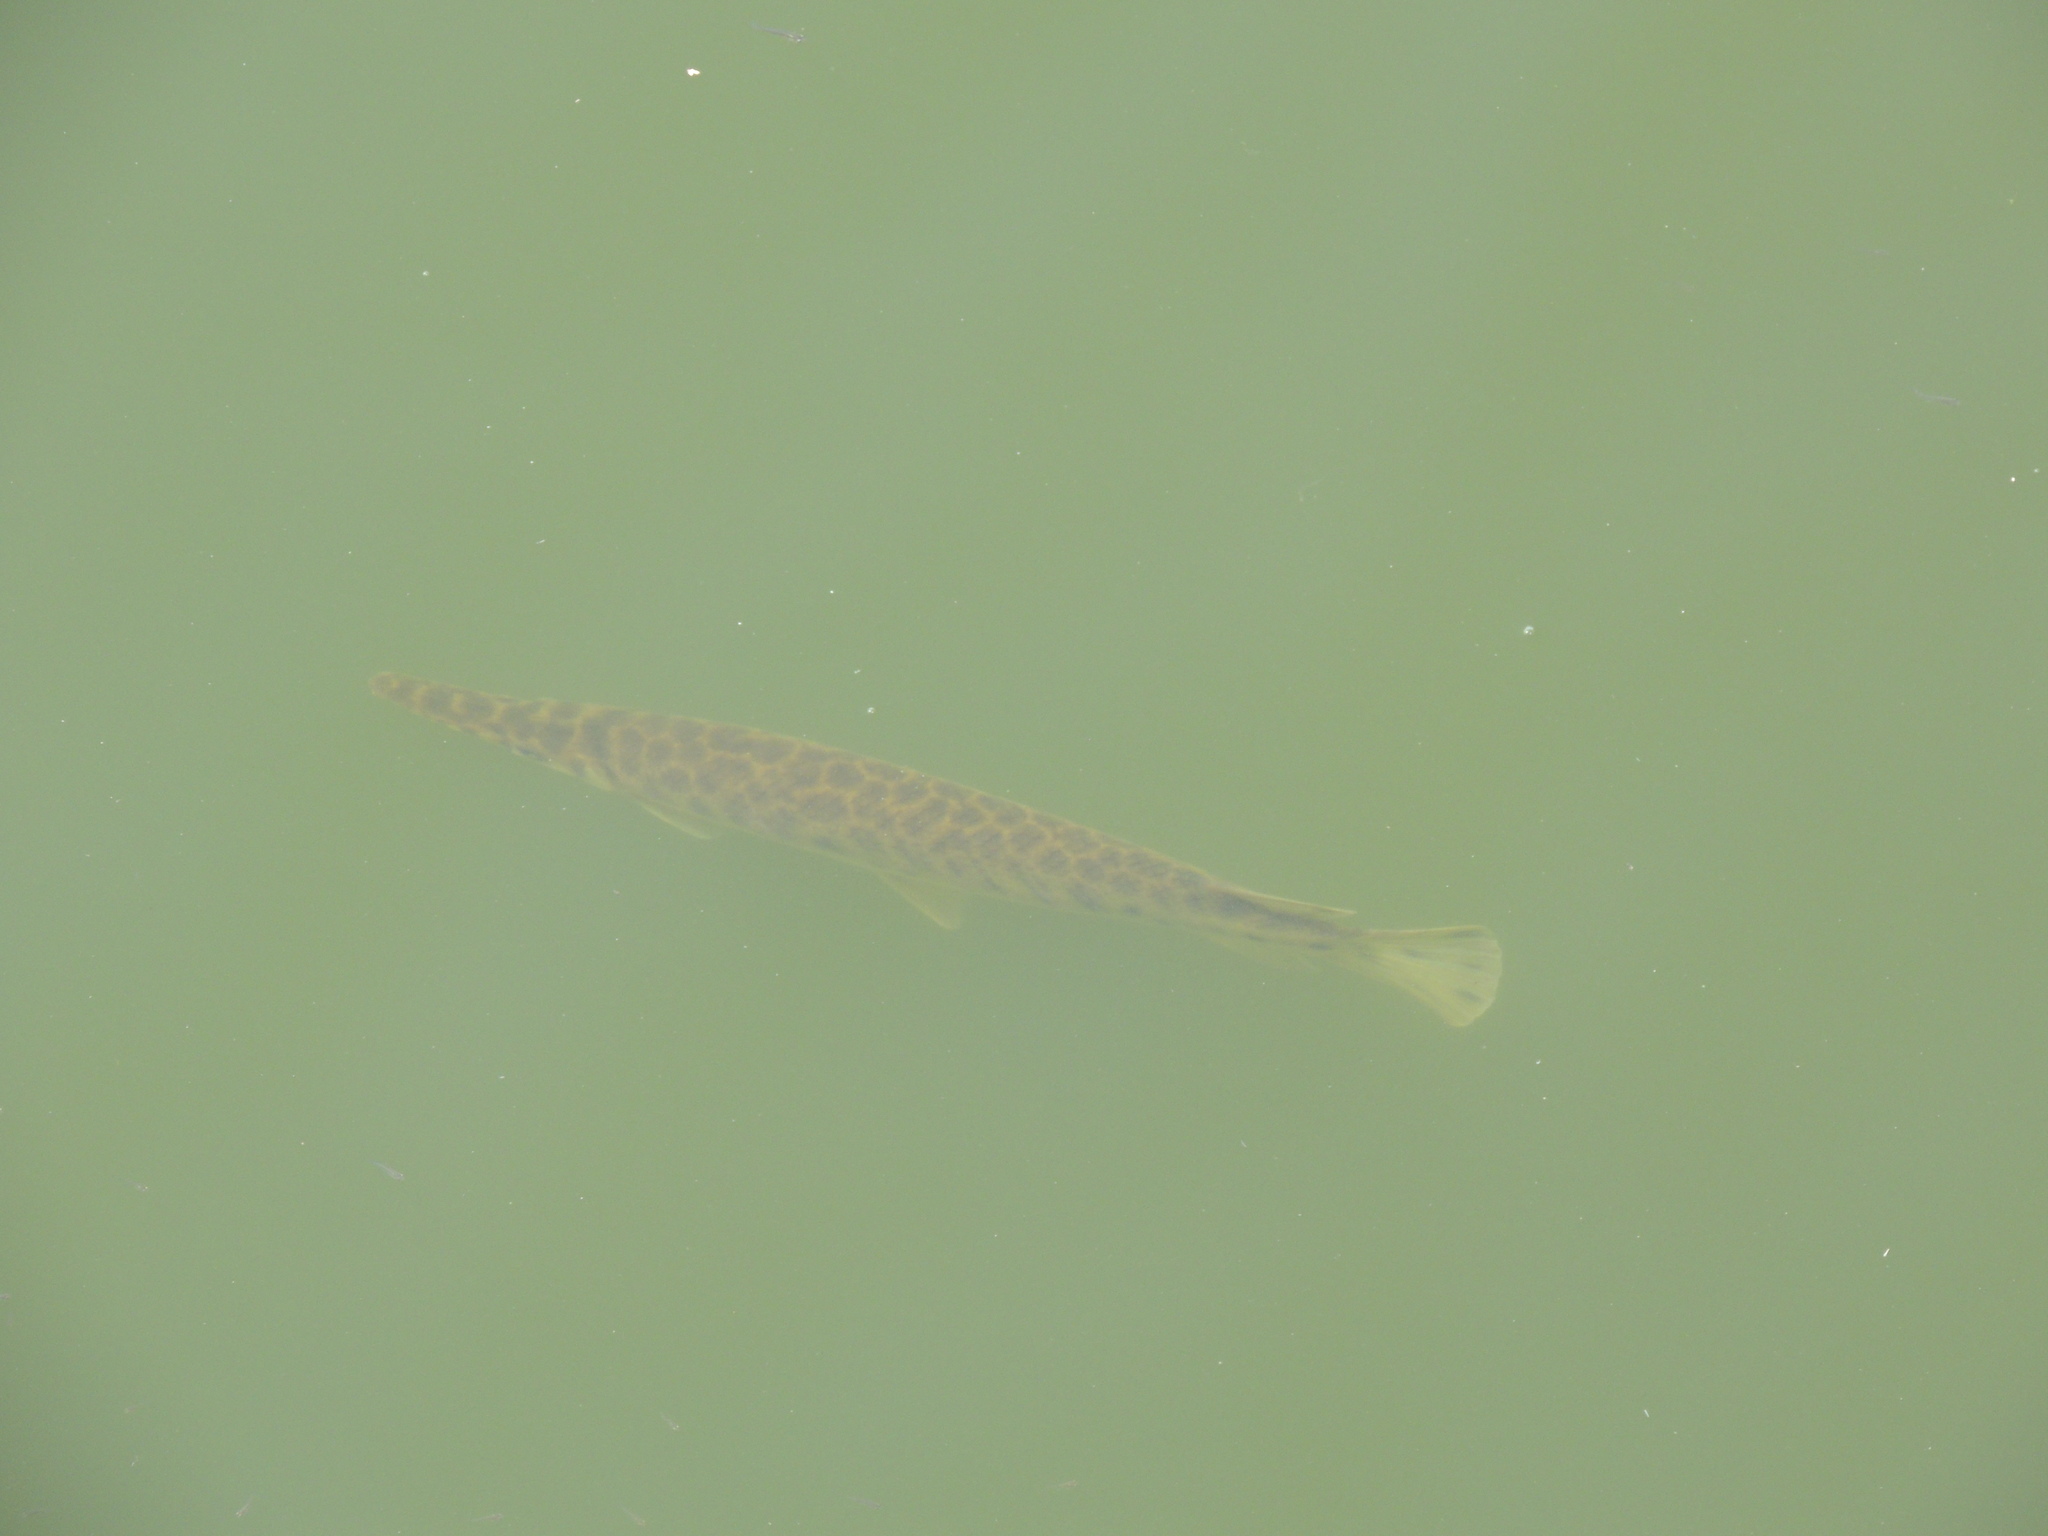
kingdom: Animalia
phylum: Chordata
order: Lepisosteiformes
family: Lepisosteidae
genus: Lepisosteus
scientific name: Lepisosteus platyrhincus
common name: Florida gar
